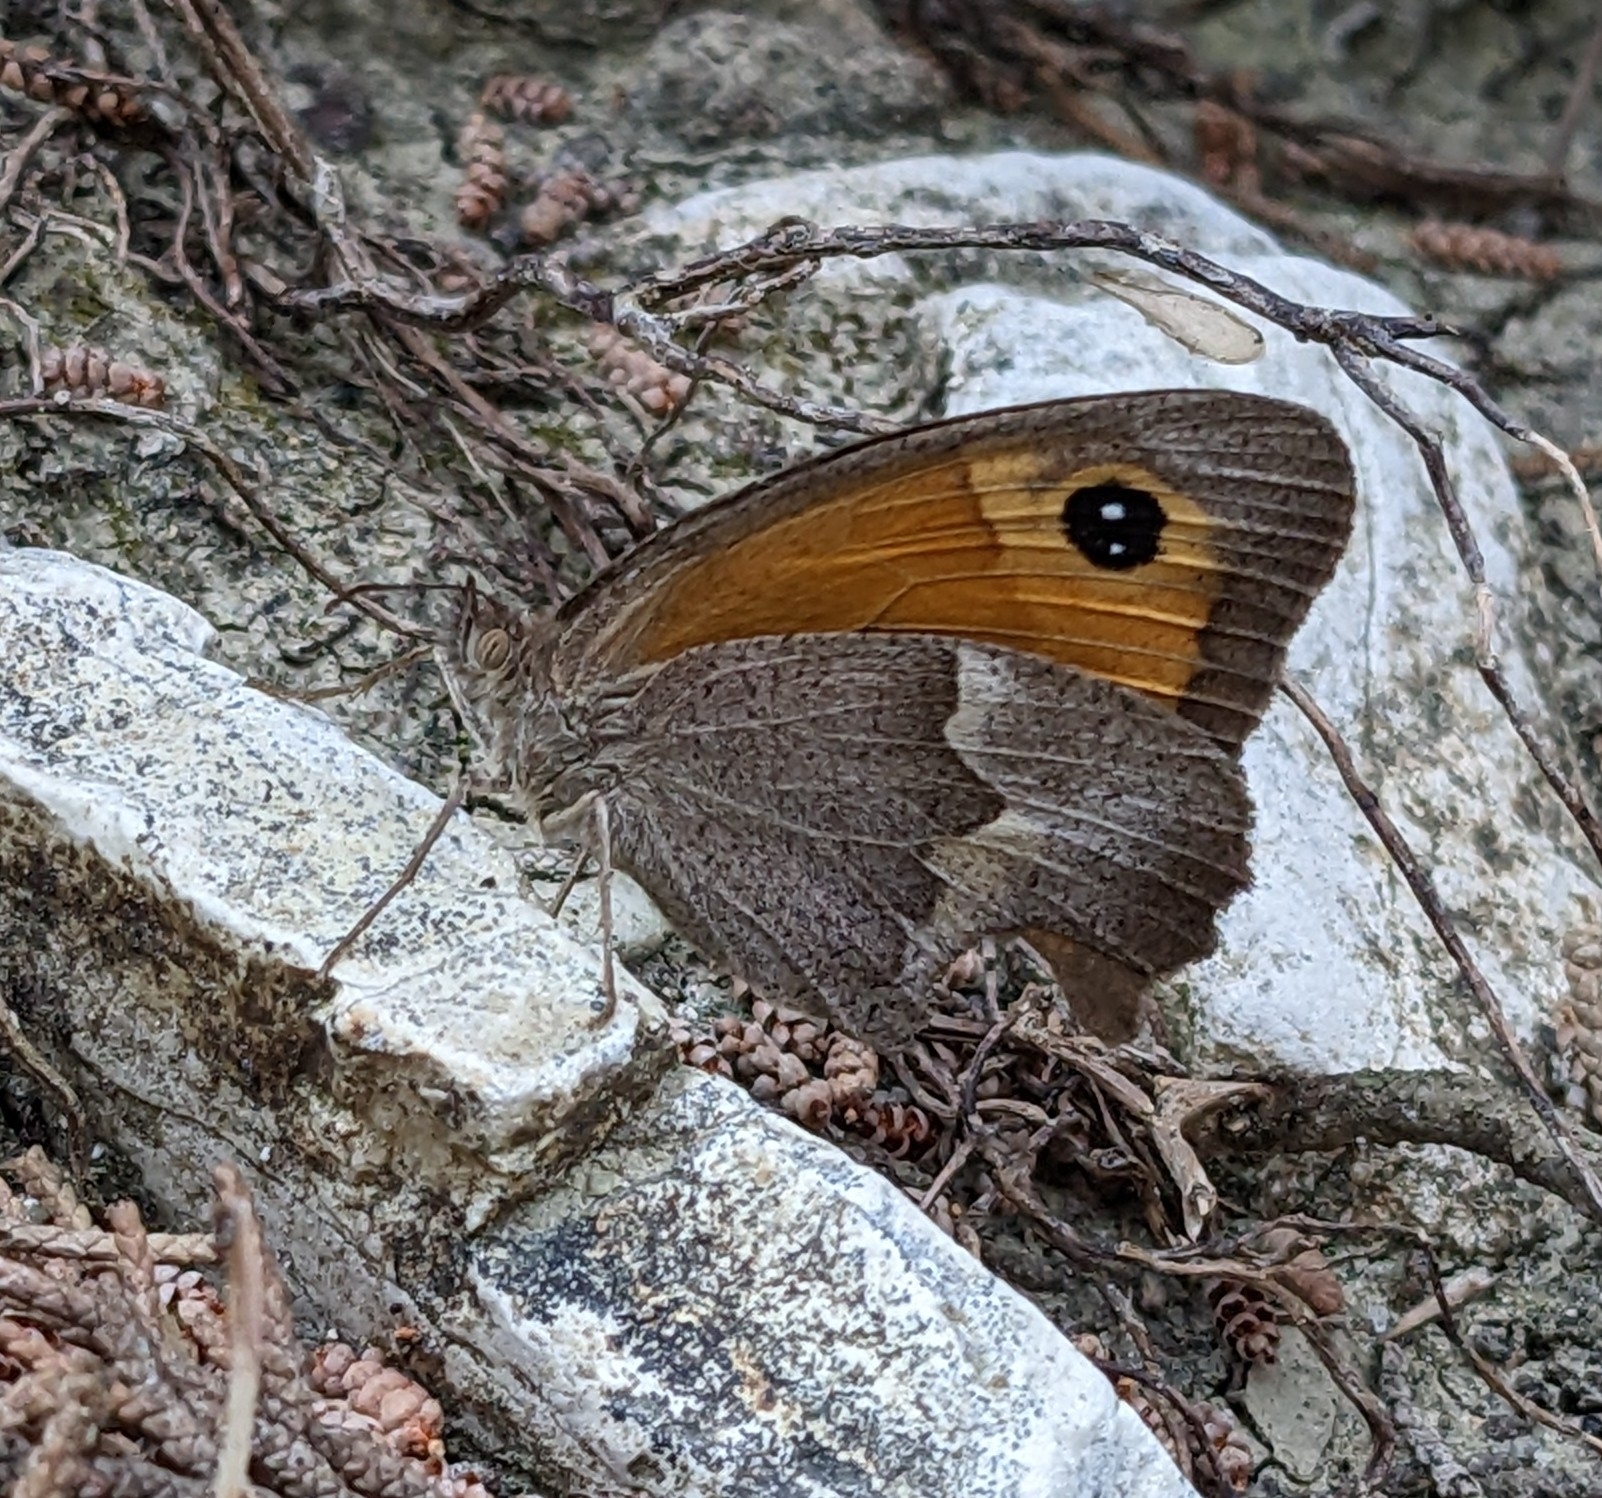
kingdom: Animalia
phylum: Arthropoda
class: Insecta
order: Lepidoptera
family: Nymphalidae
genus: Maniola
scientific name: Maniola telmessia
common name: Persian meadow brown
